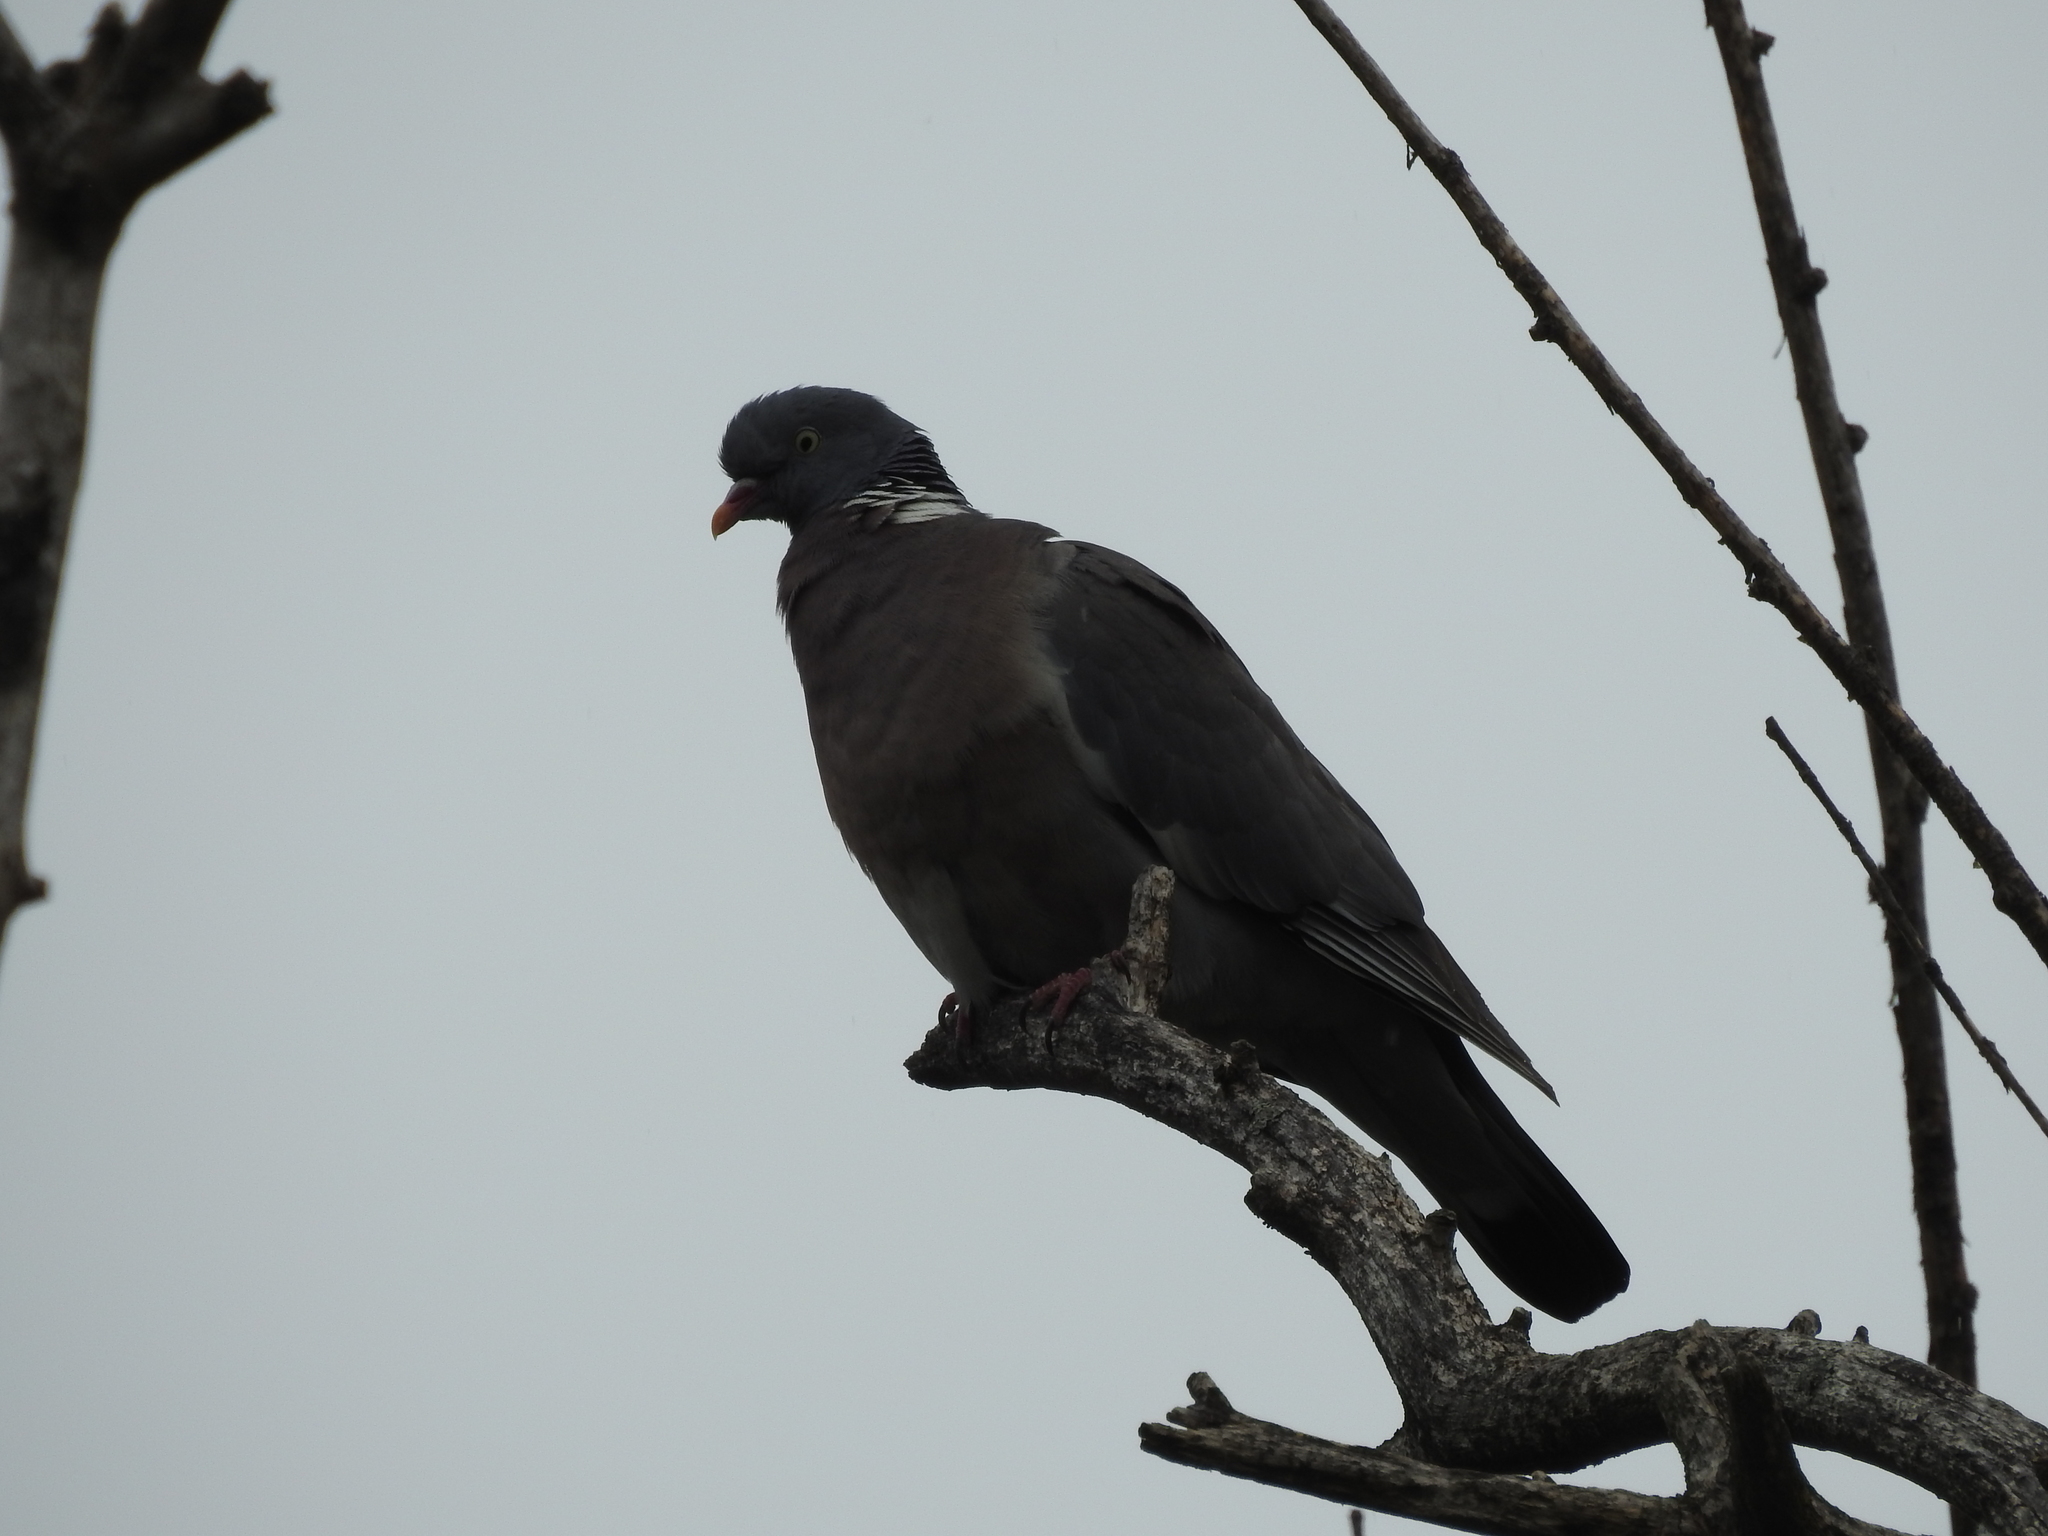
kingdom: Animalia
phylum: Chordata
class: Aves
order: Columbiformes
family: Columbidae
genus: Columba
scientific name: Columba palumbus
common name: Common wood pigeon
